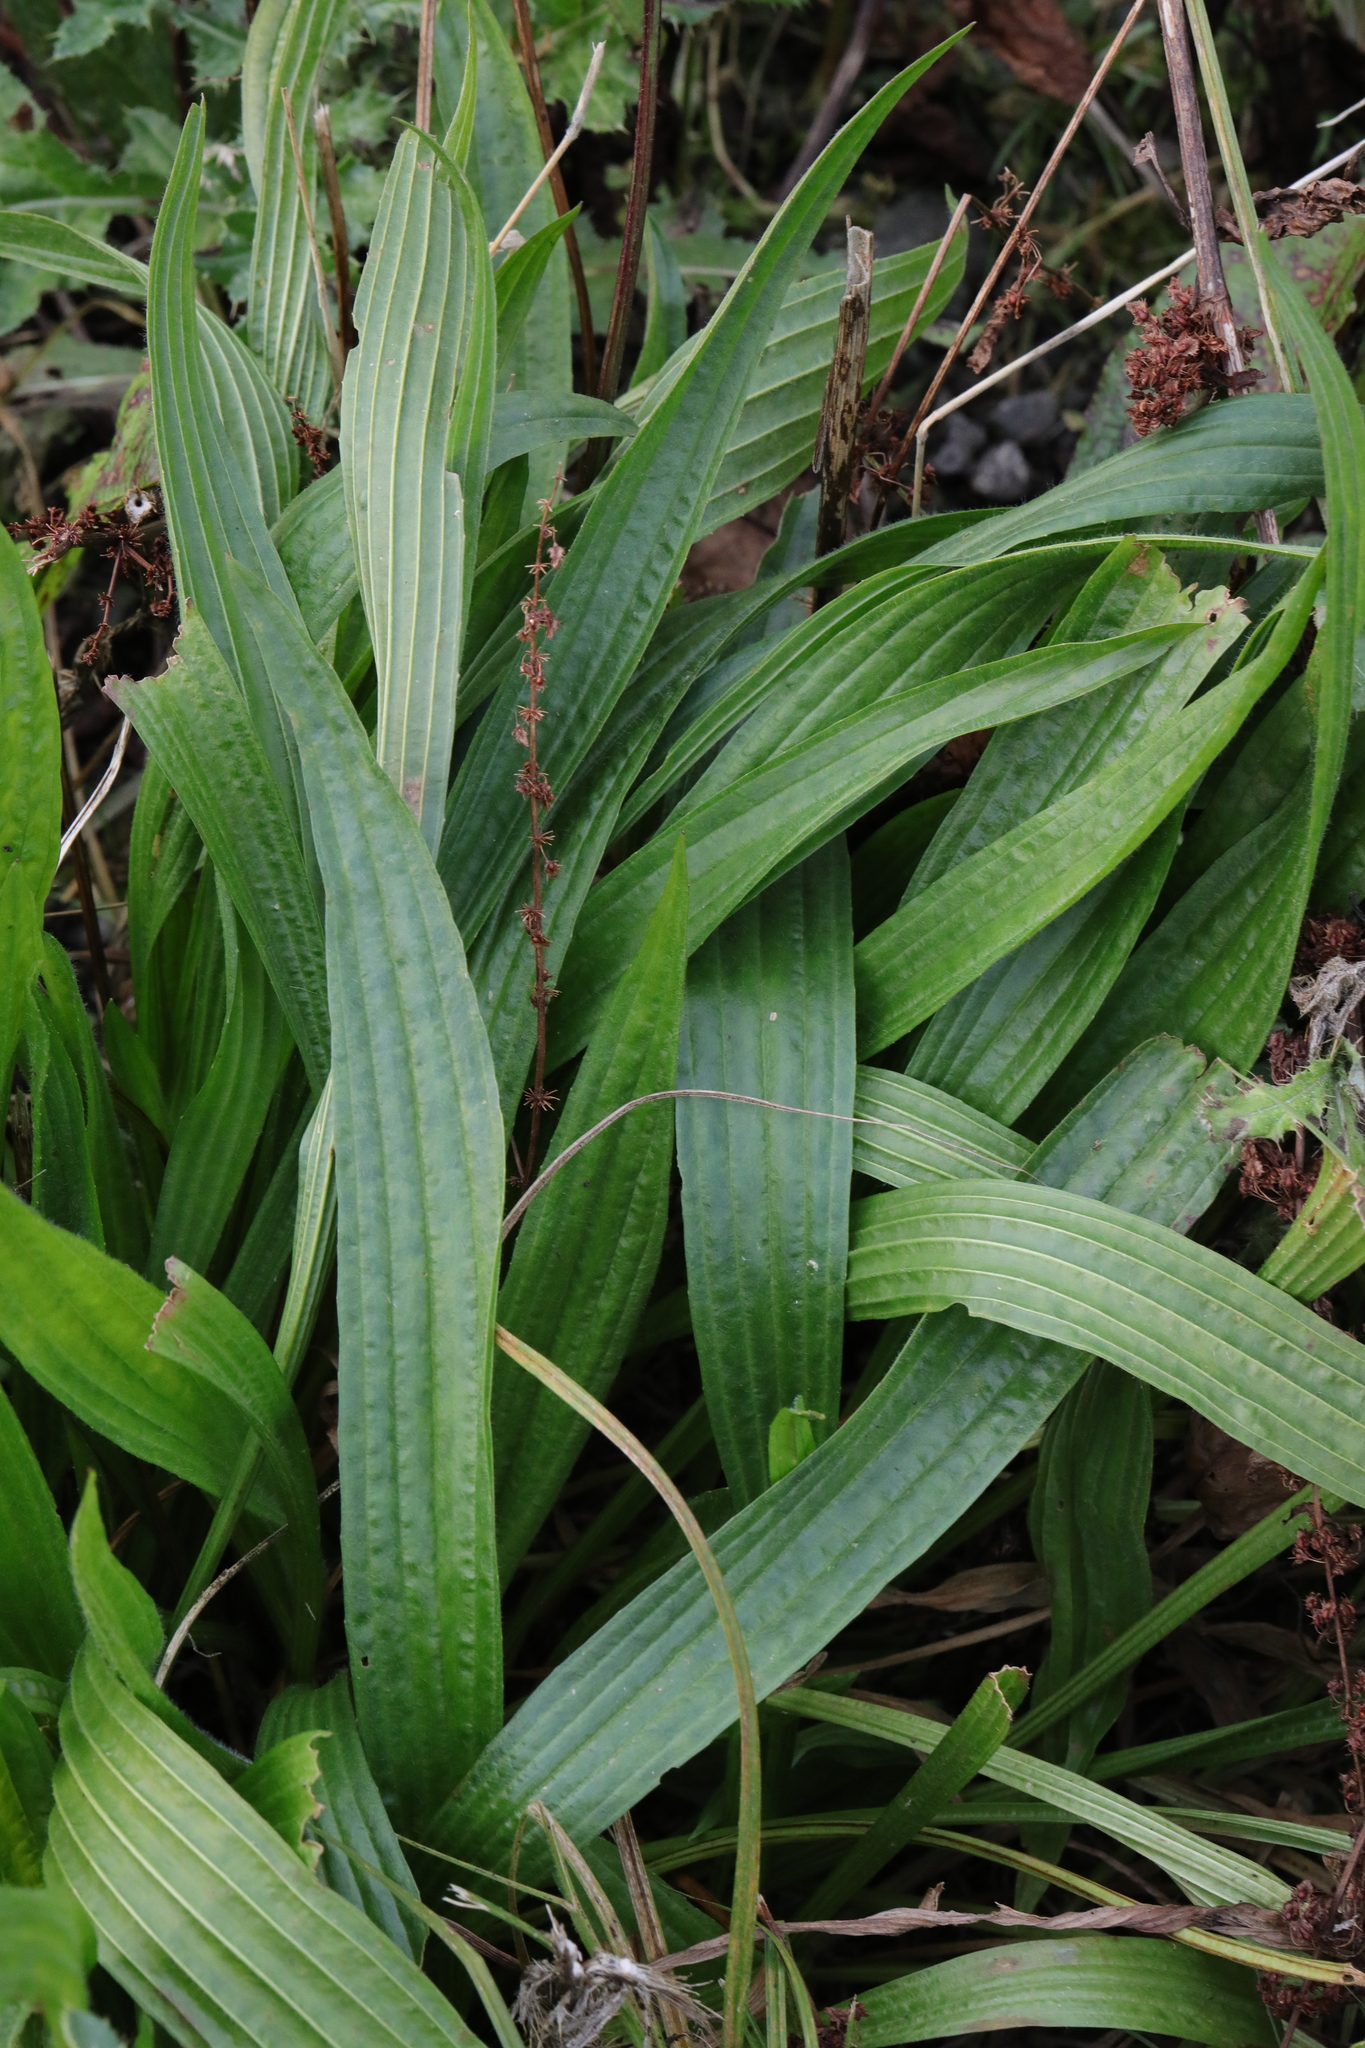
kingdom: Plantae
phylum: Tracheophyta
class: Magnoliopsida
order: Lamiales
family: Plantaginaceae
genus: Plantago
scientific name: Plantago lanceolata
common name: Ribwort plantain
